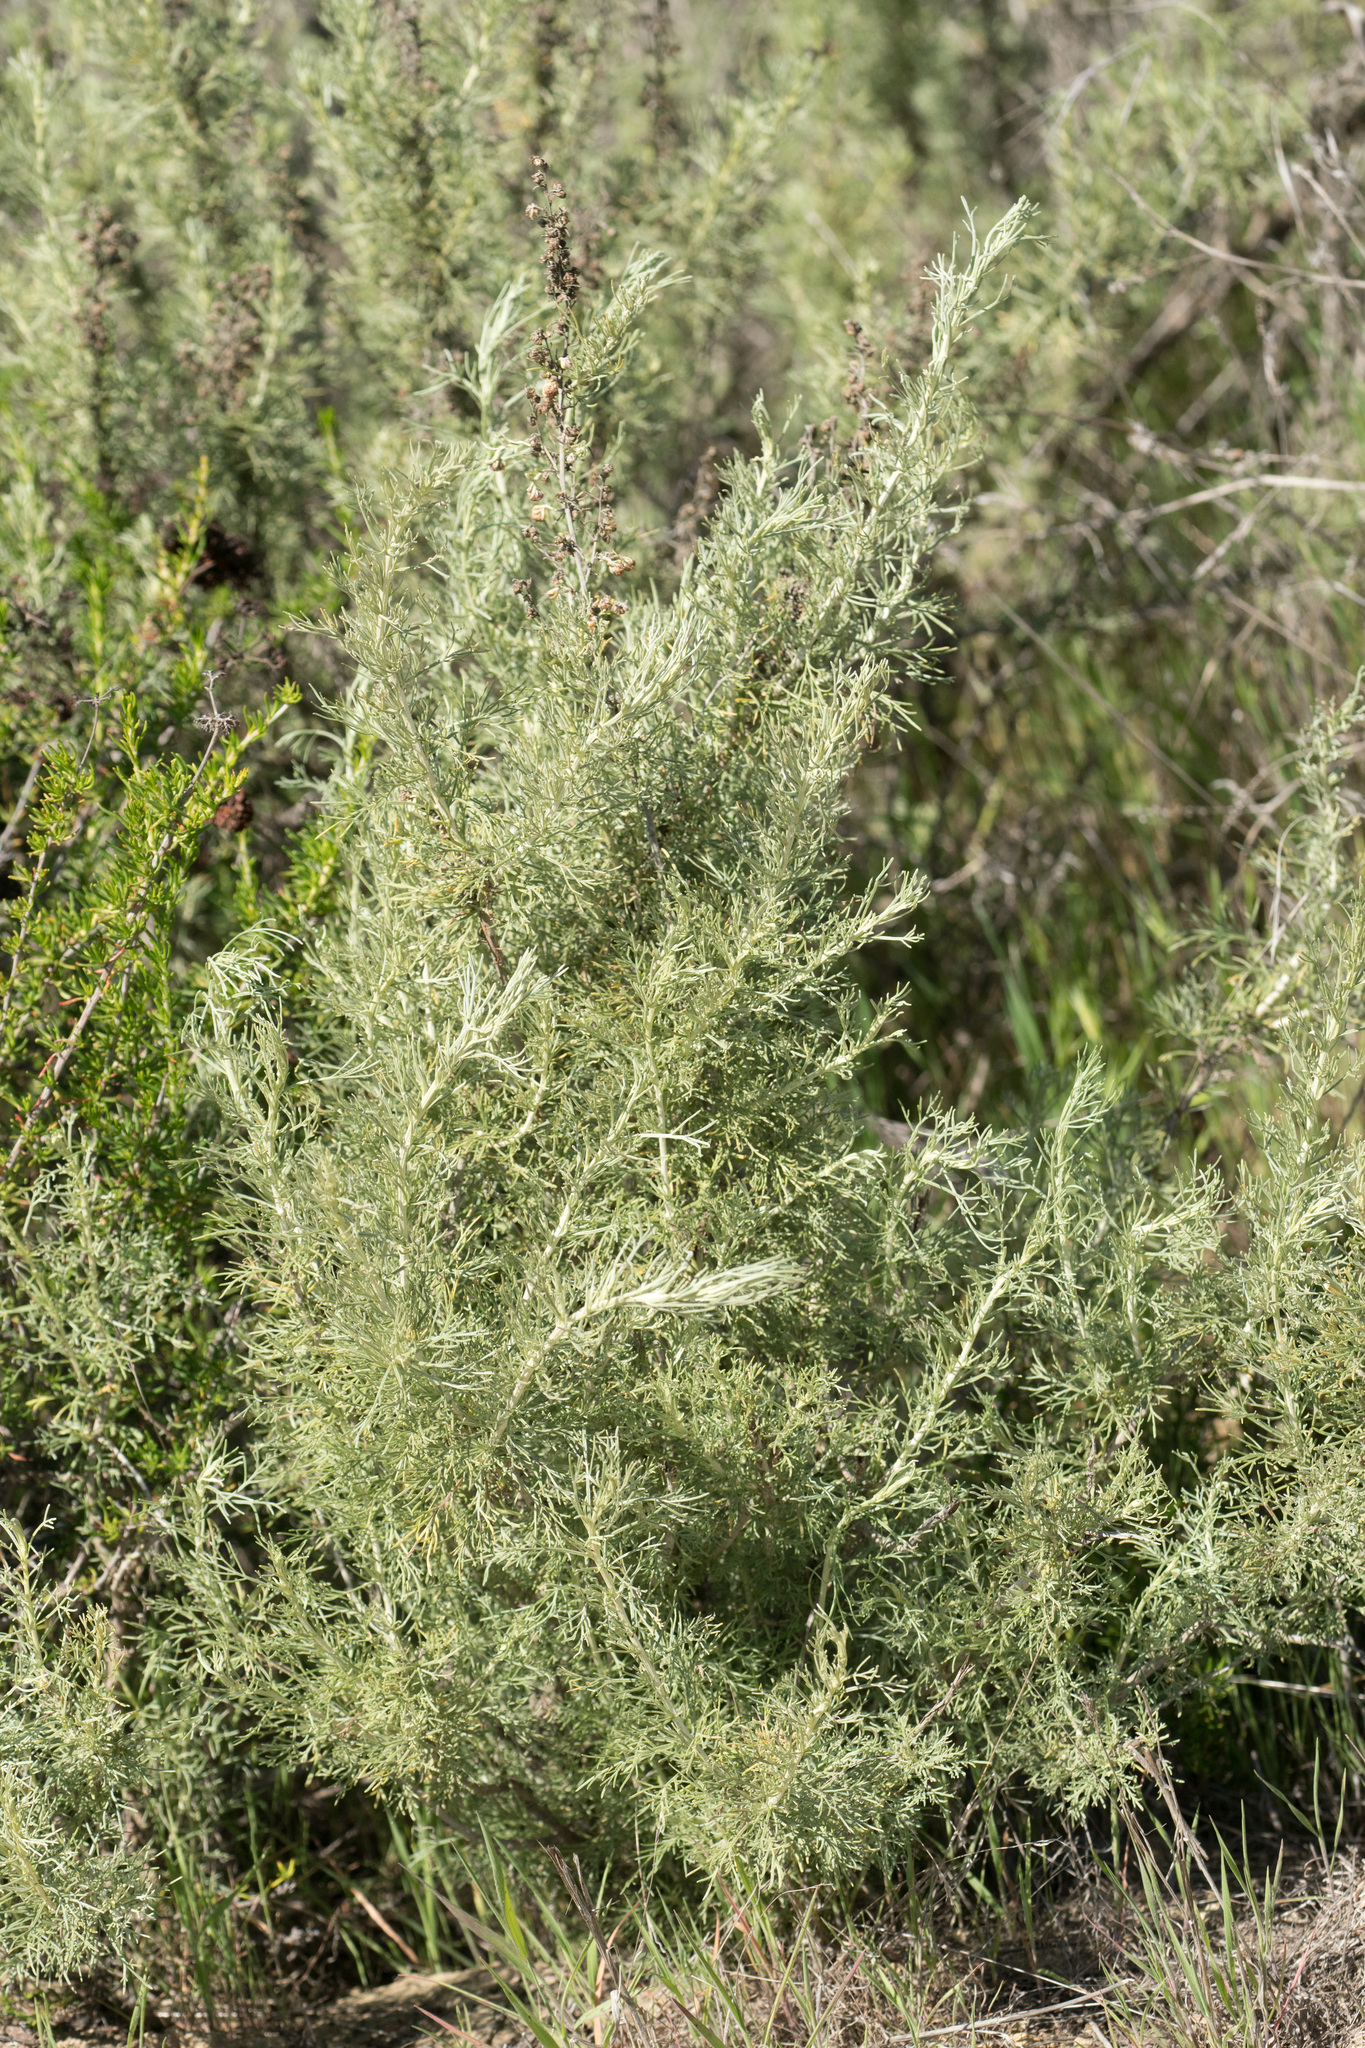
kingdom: Plantae
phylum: Tracheophyta
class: Magnoliopsida
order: Asterales
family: Asteraceae
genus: Artemisia
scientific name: Artemisia californica
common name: California sagebrush
